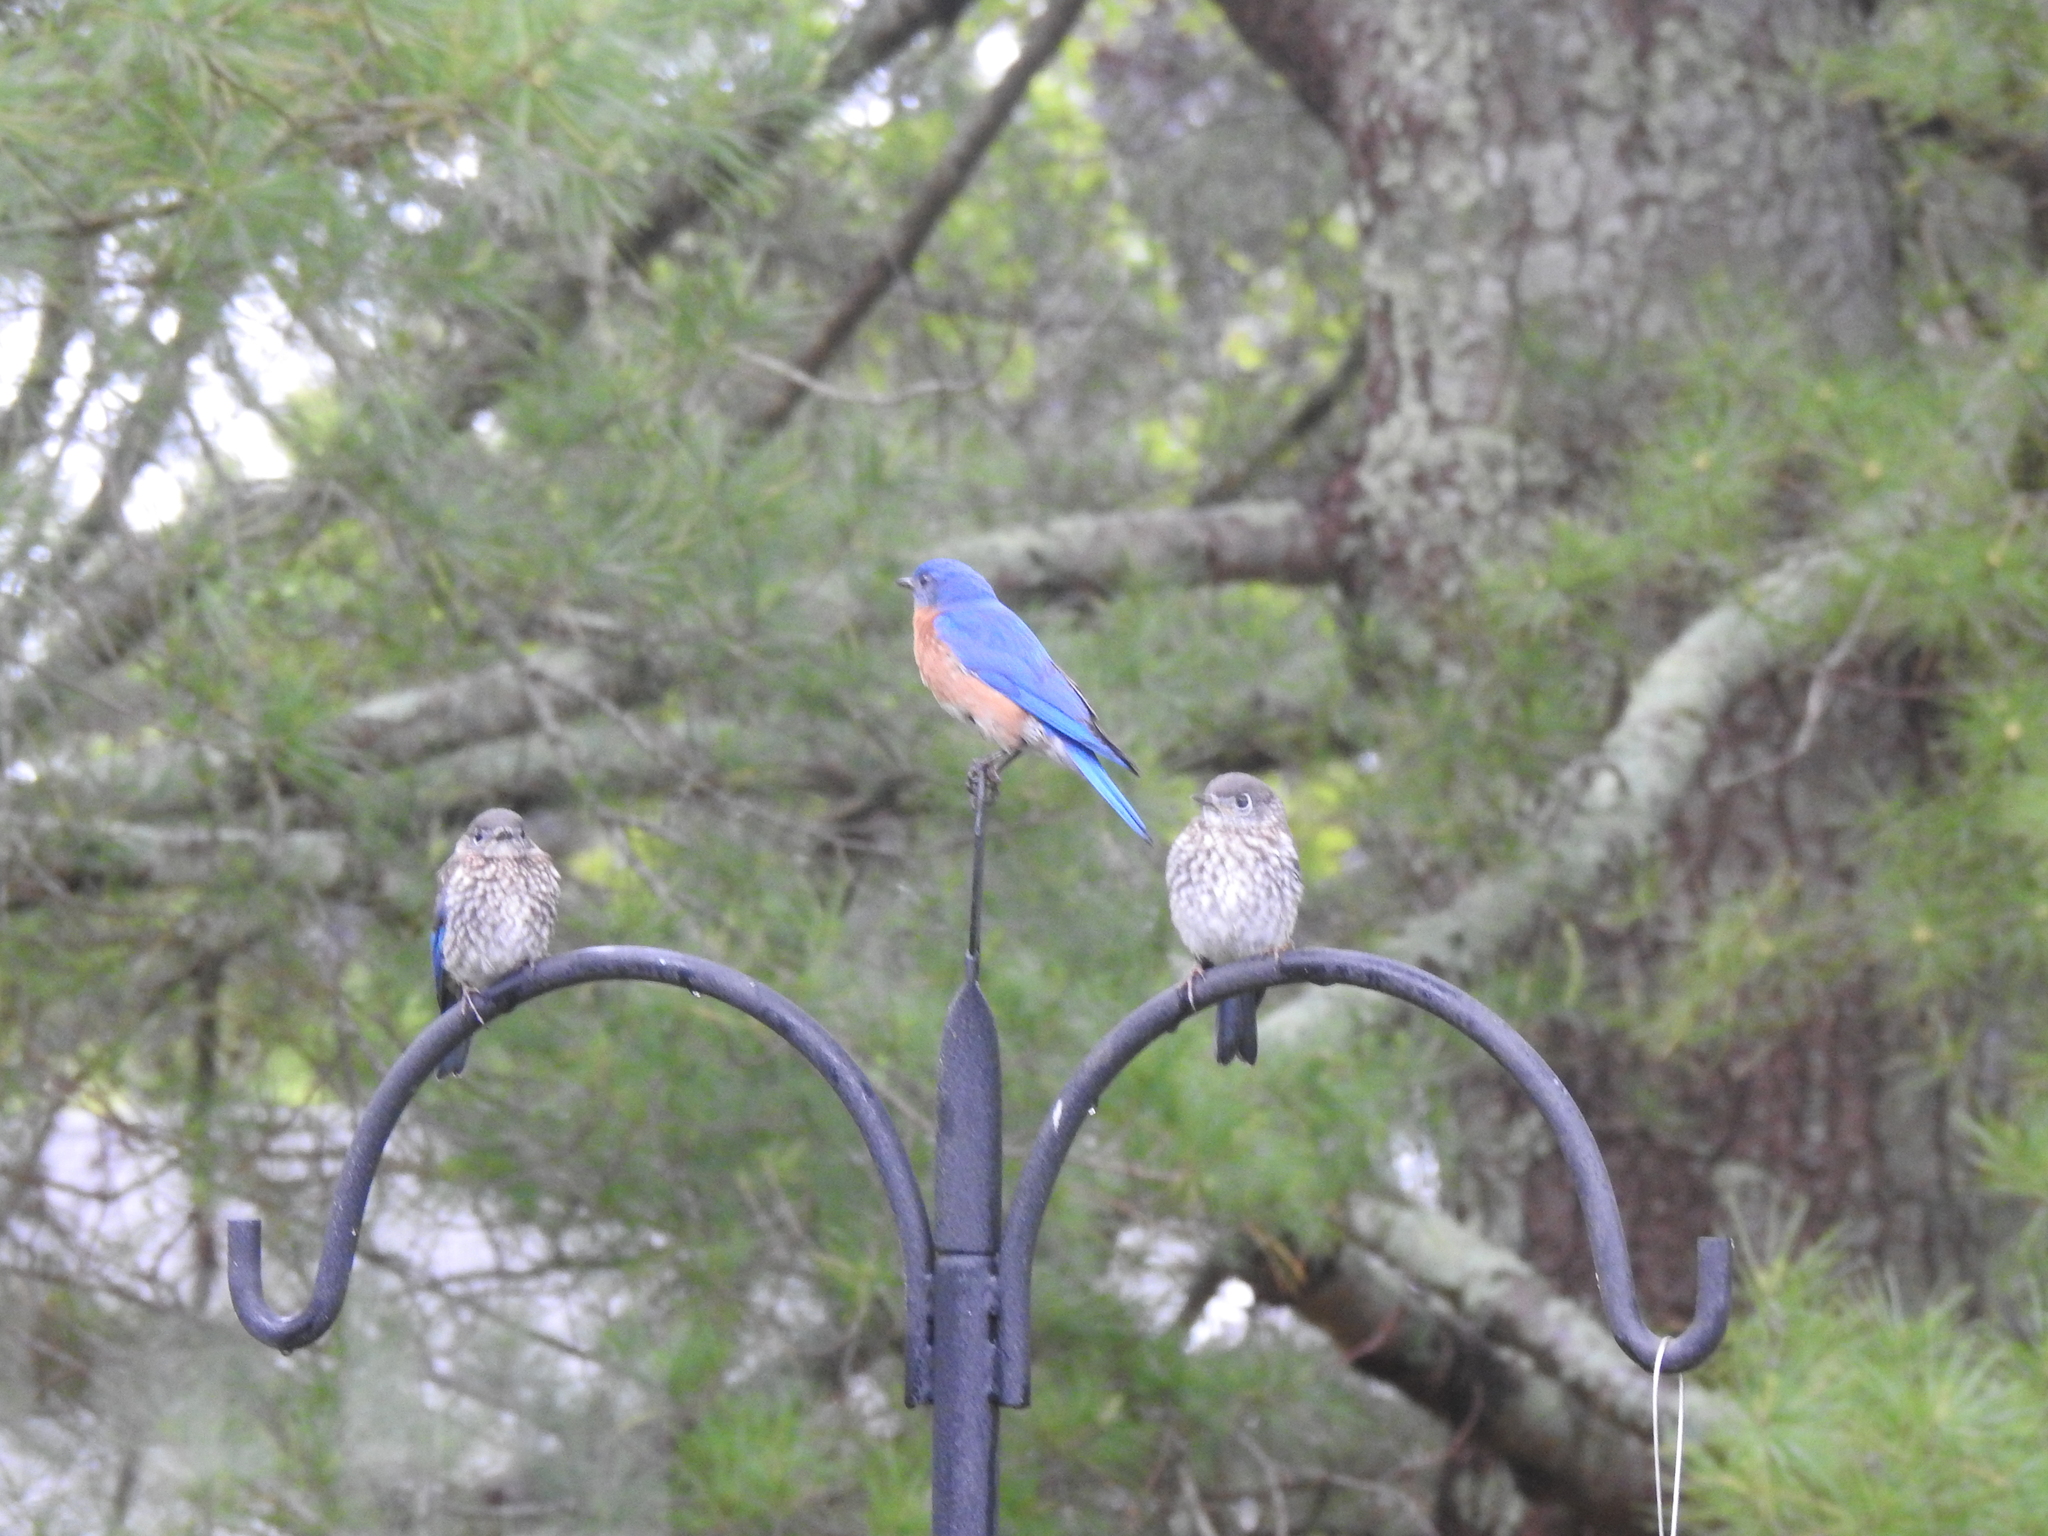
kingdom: Animalia
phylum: Chordata
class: Aves
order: Passeriformes
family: Turdidae
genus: Sialia
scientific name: Sialia sialis
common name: Eastern bluebird
